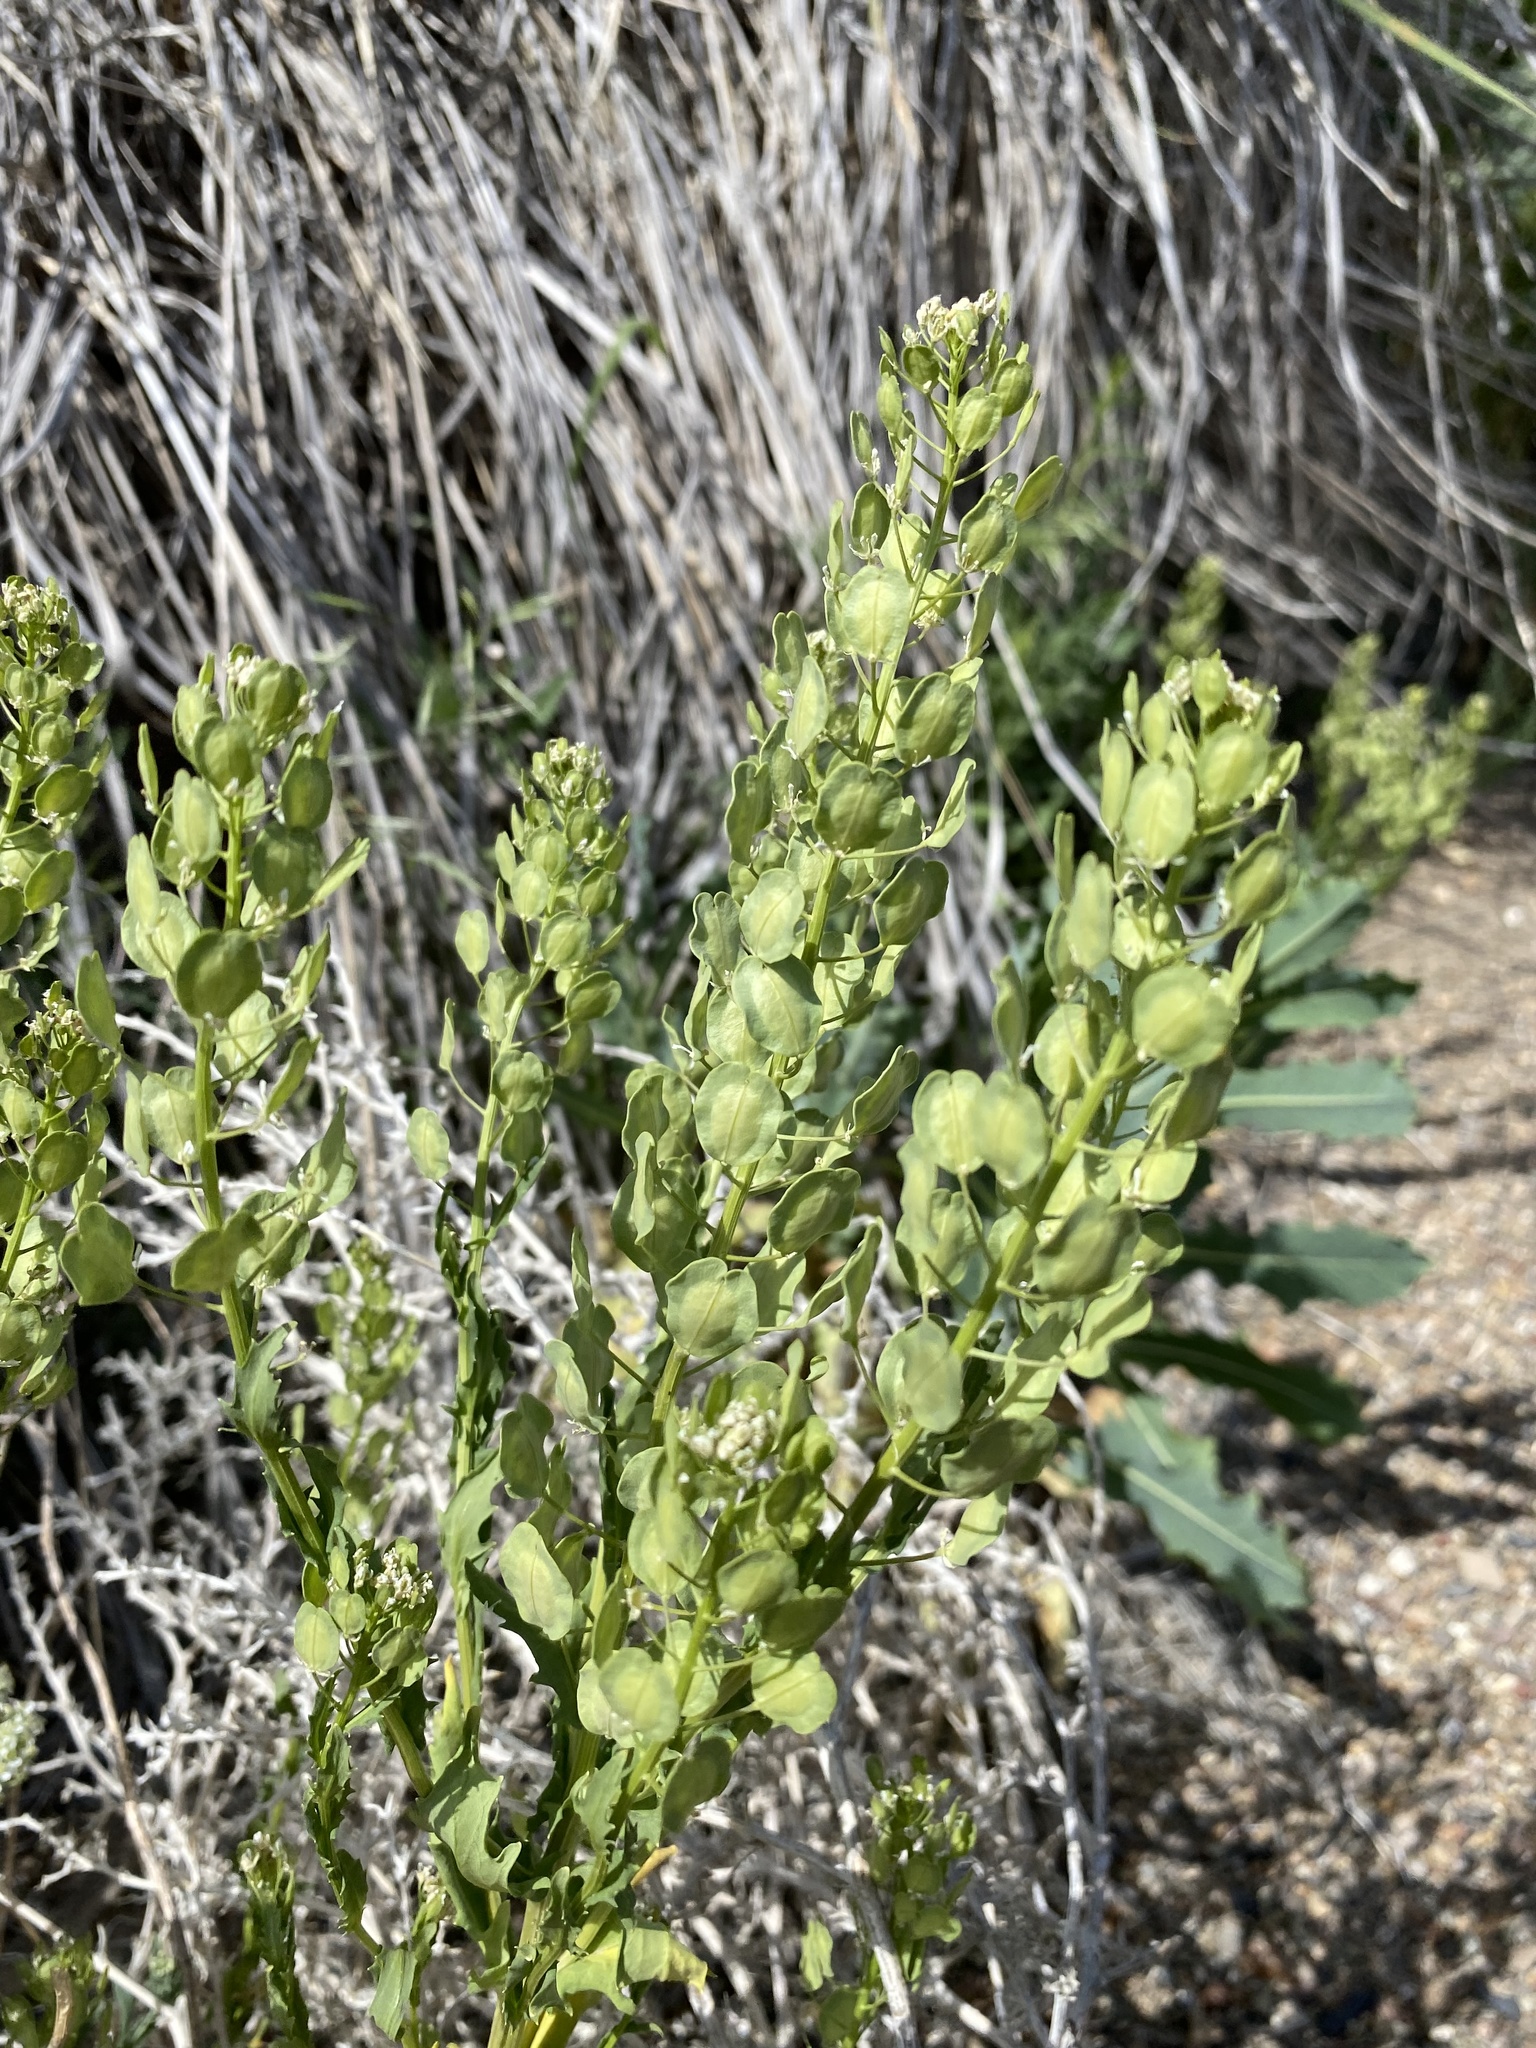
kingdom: Plantae
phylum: Tracheophyta
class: Magnoliopsida
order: Brassicales
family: Brassicaceae
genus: Thlaspi
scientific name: Thlaspi arvense
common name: Field pennycress
